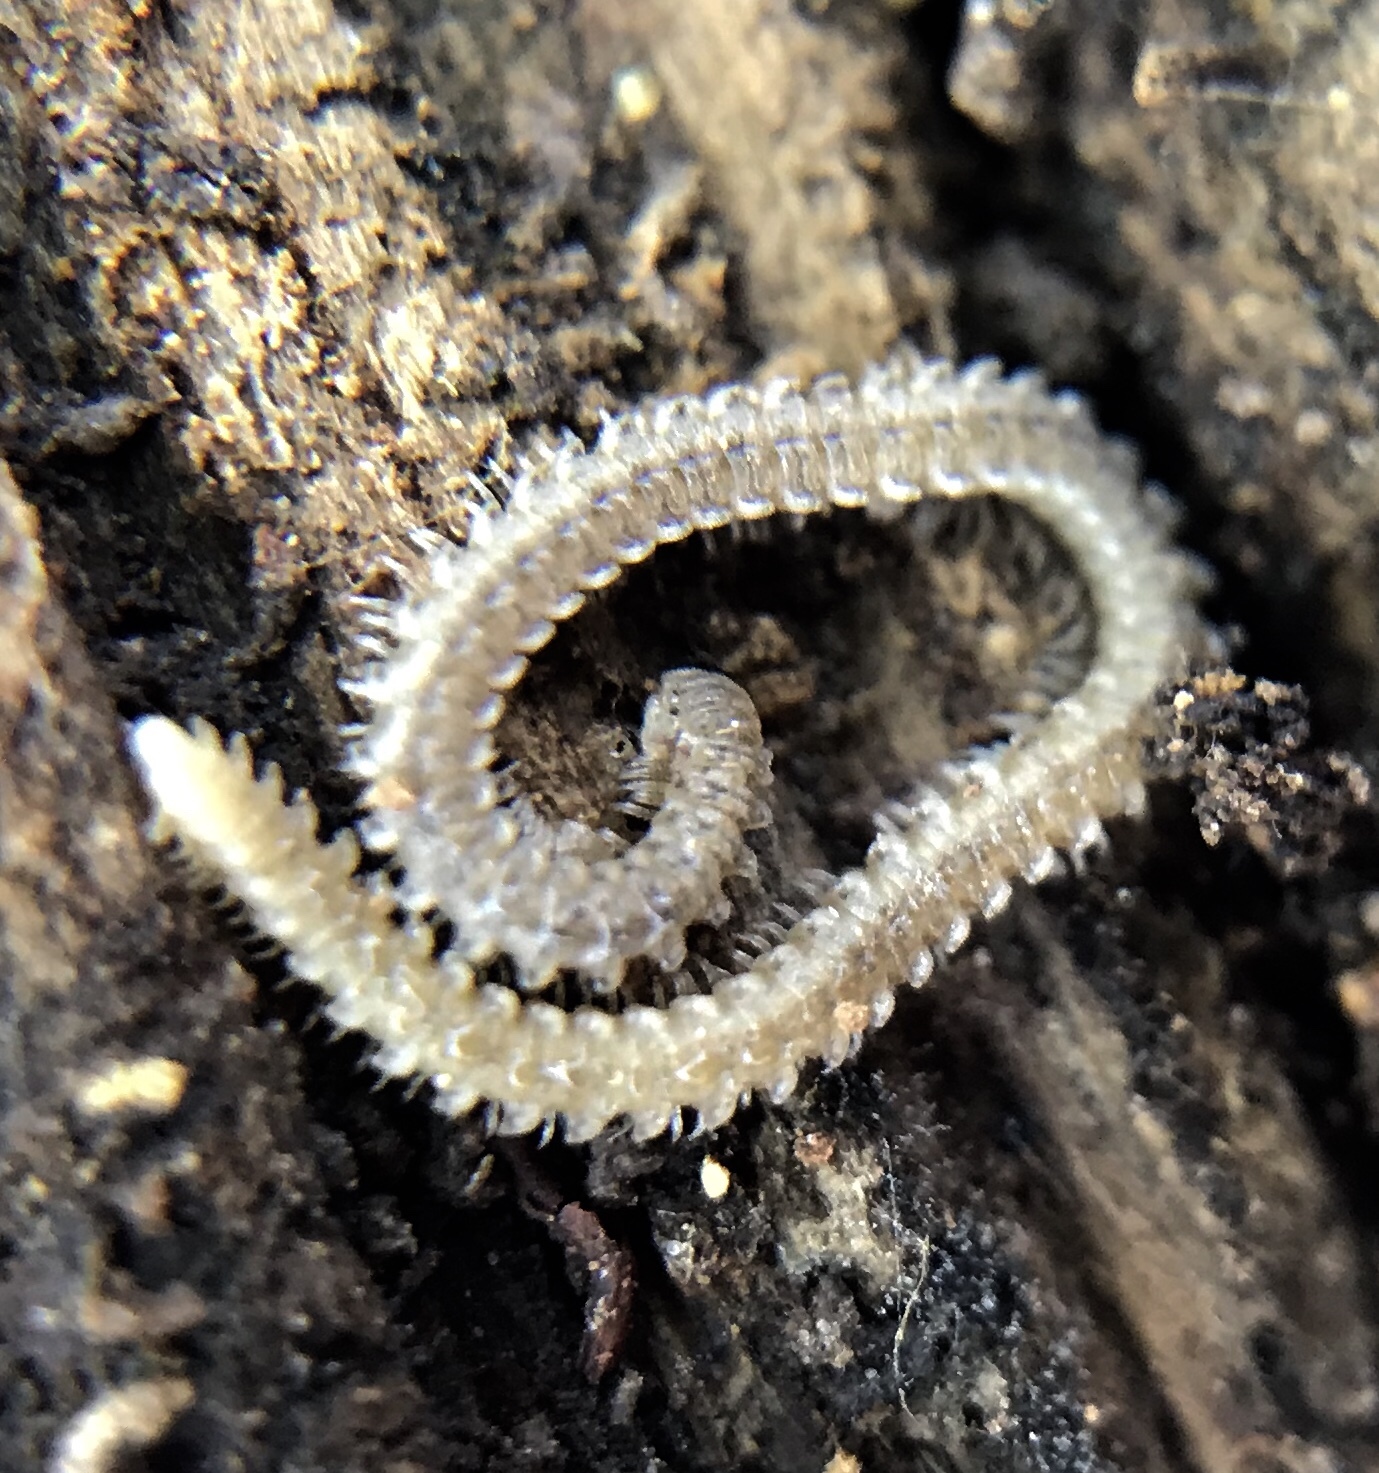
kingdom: Animalia
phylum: Arthropoda
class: Diplopoda
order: Platydesmida
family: Andrognathidae
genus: Andrognathus
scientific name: Andrognathus corticarius
